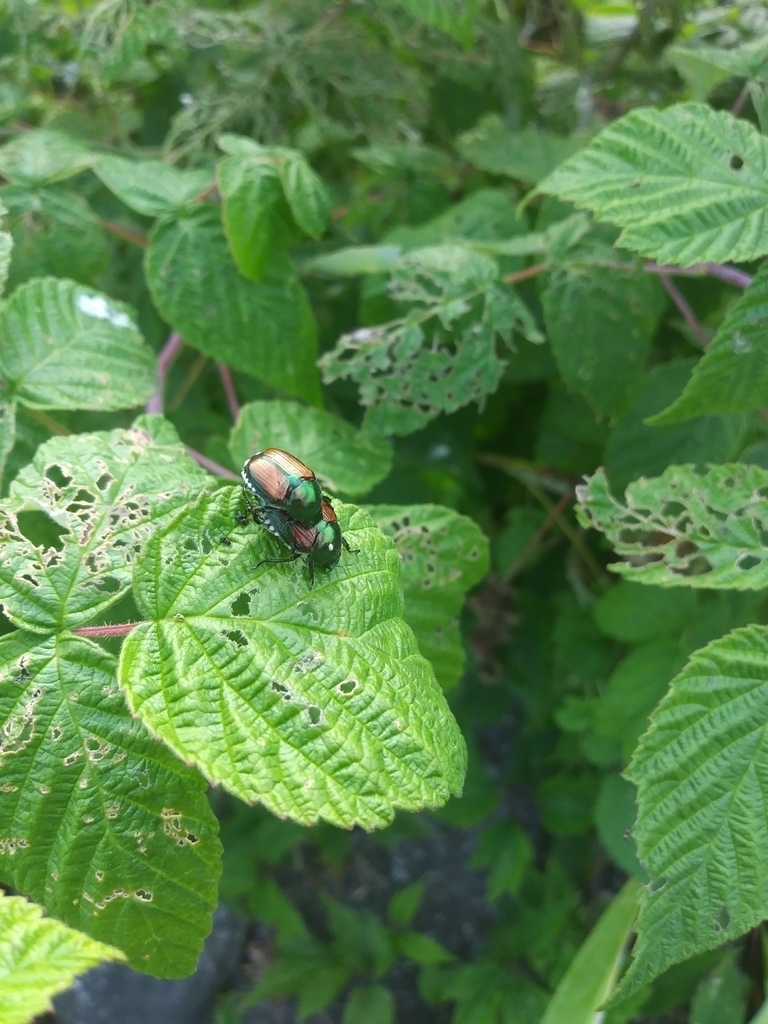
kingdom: Animalia
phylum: Arthropoda
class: Insecta
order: Diptera
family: Tachinidae
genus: Istocheta
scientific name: Istocheta aldrichi
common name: Parasitic wasp
